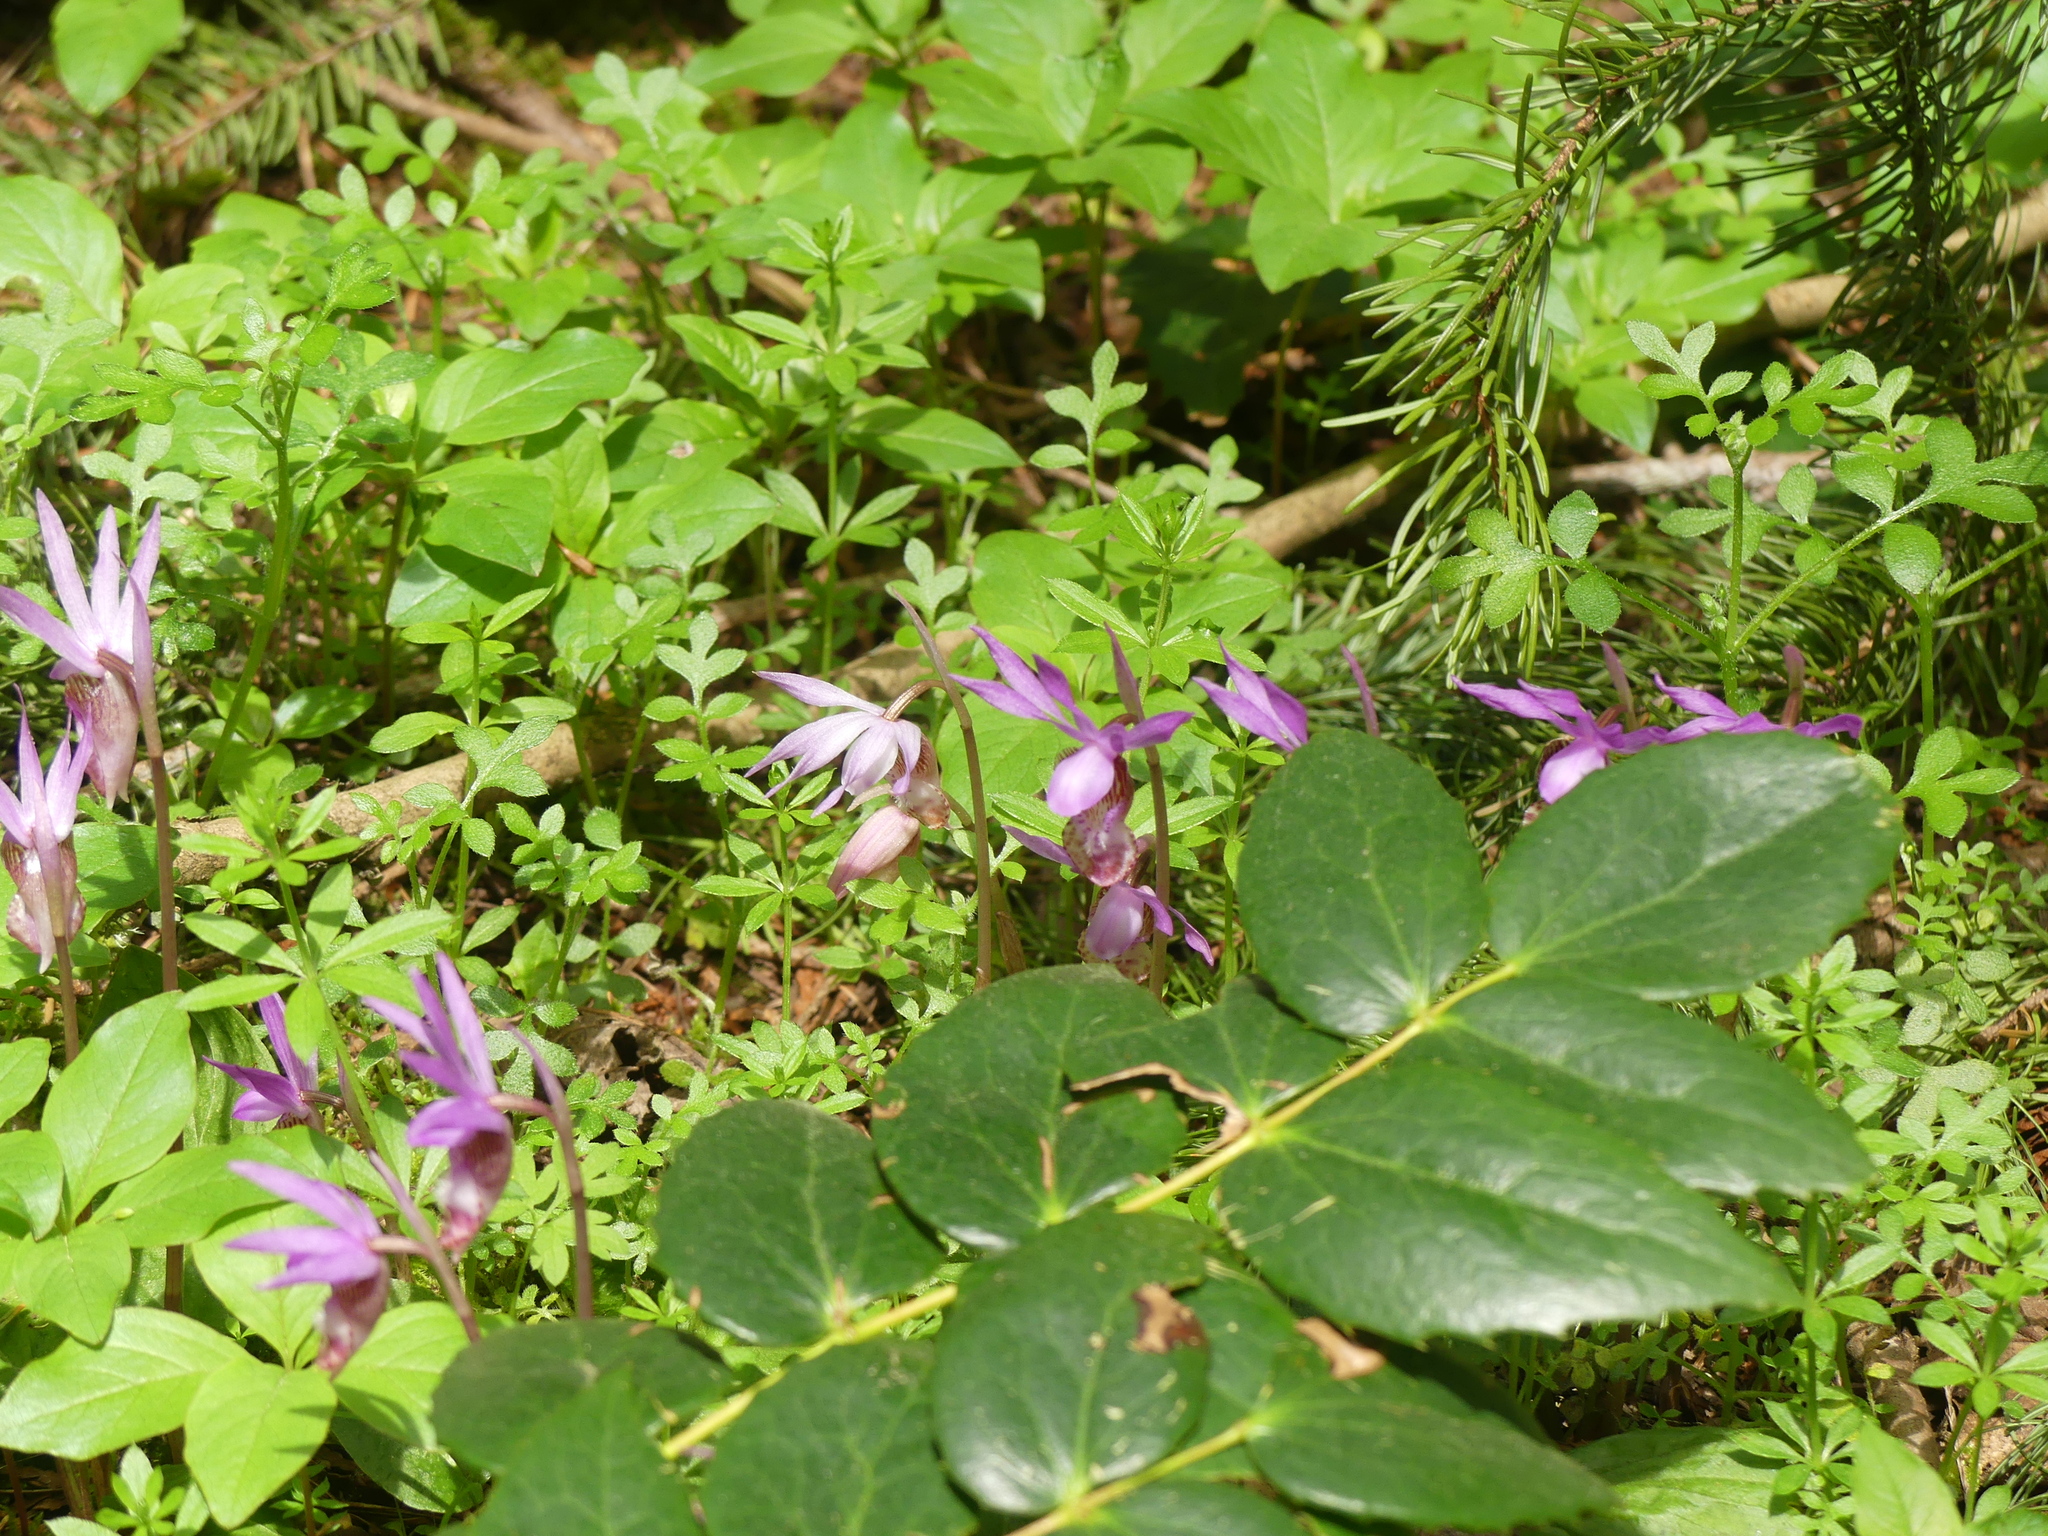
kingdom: Plantae
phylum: Tracheophyta
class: Liliopsida
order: Asparagales
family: Orchidaceae
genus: Calypso
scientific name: Calypso bulbosa
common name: Calypso
